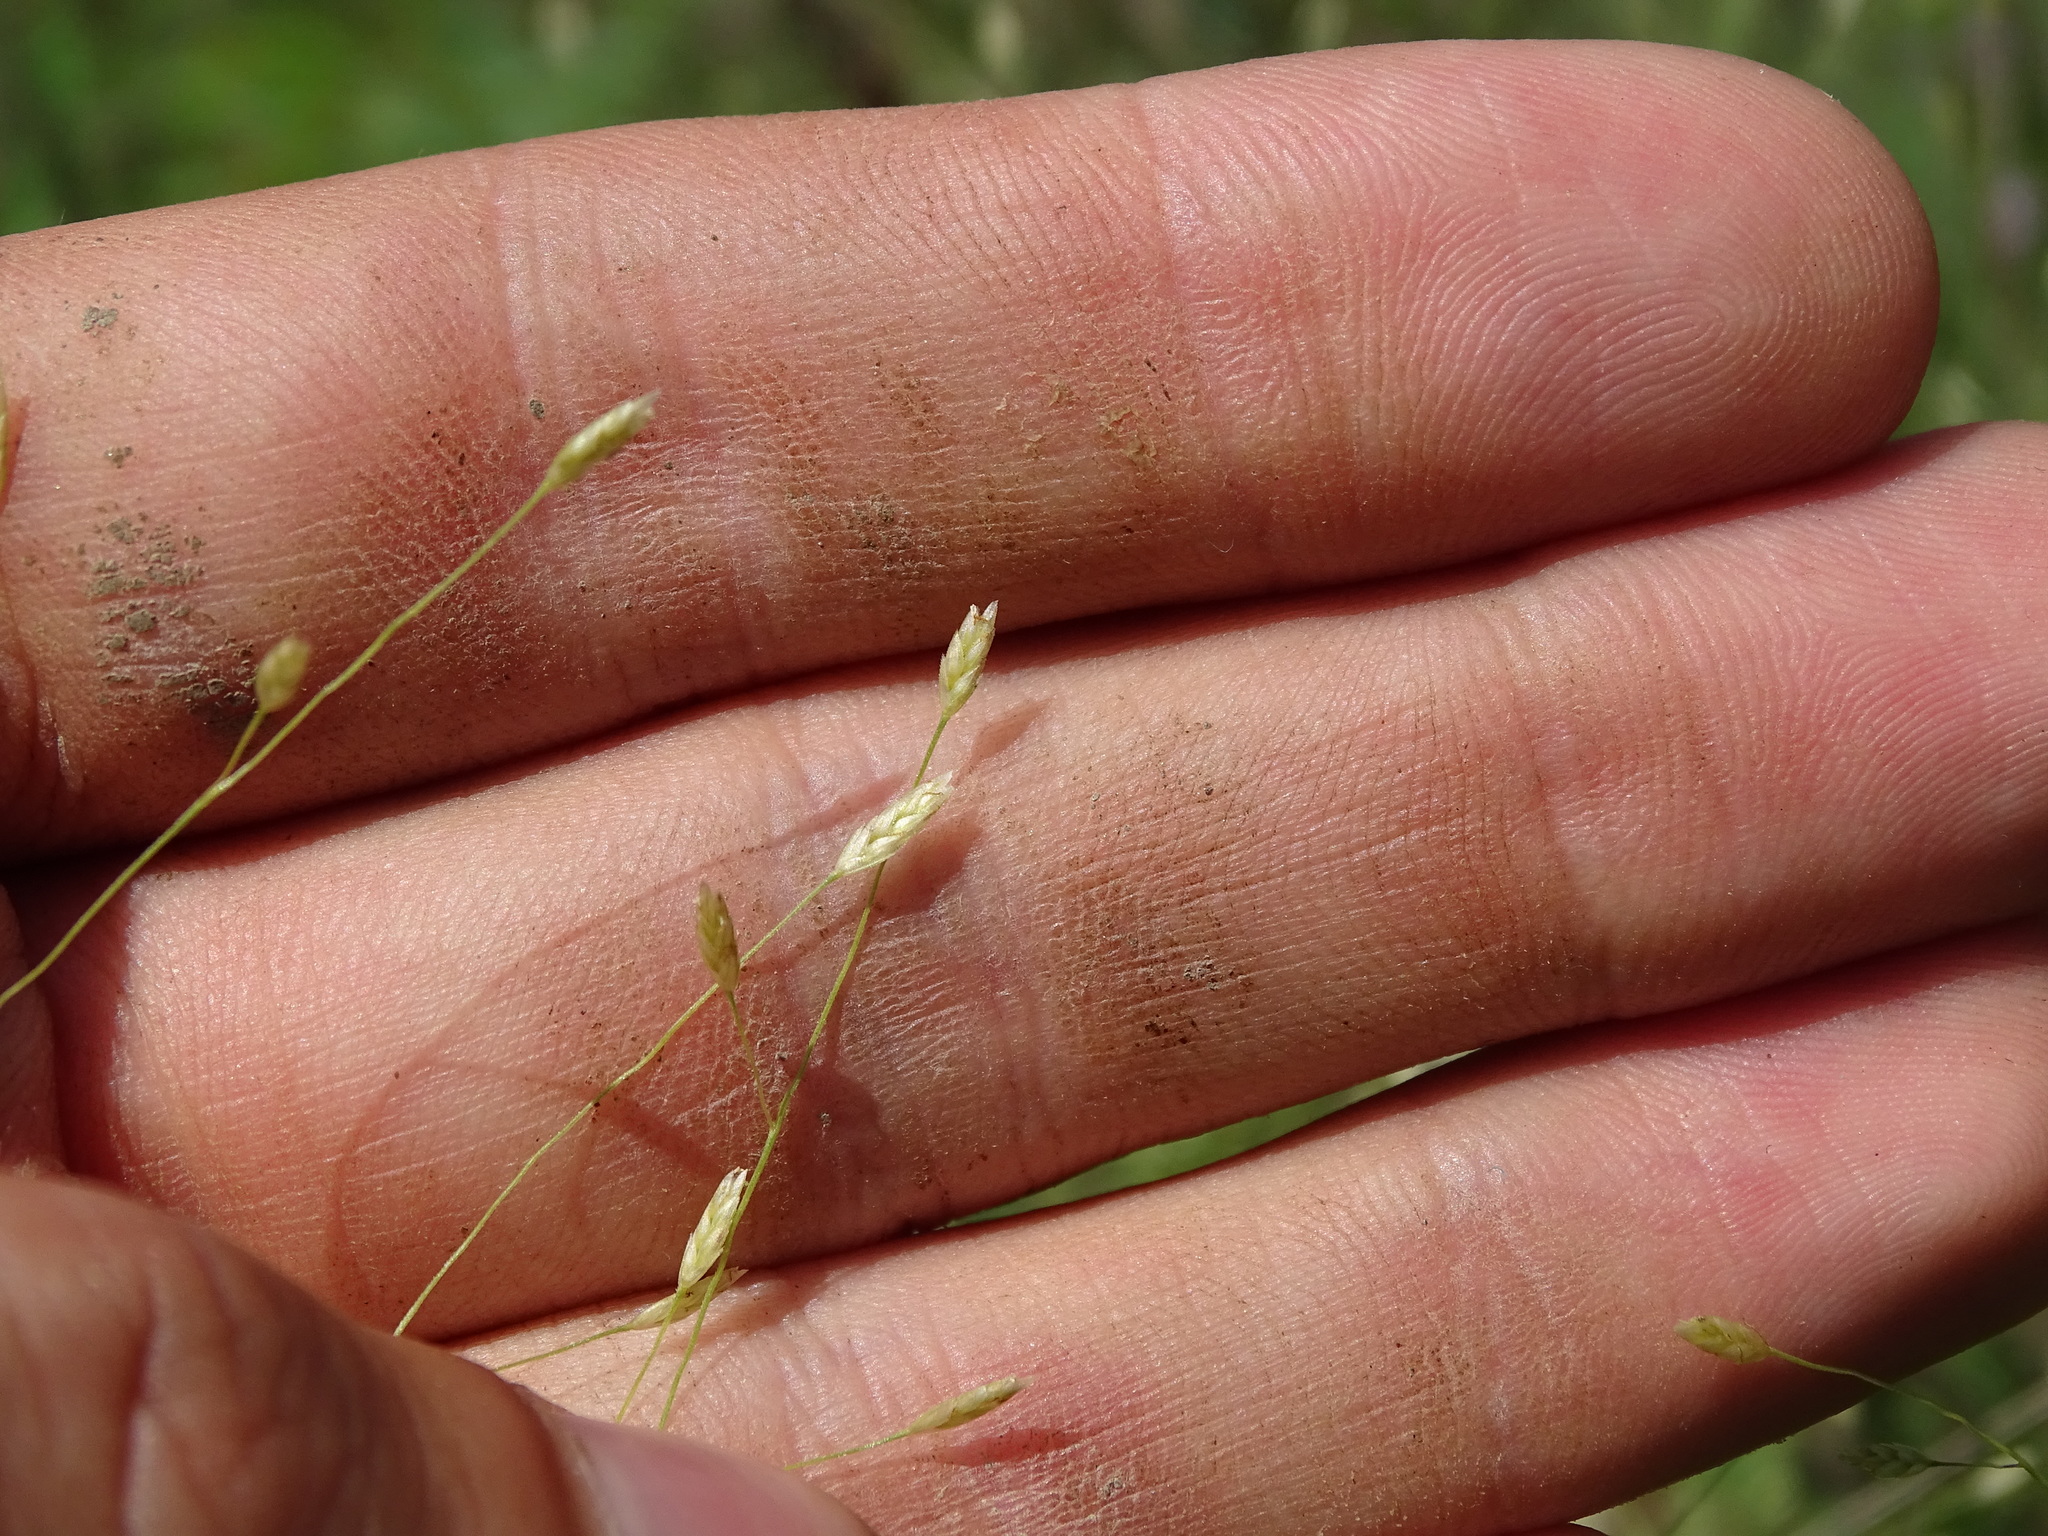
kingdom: Plantae
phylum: Tracheophyta
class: Liliopsida
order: Poales
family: Poaceae
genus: Eragrostis
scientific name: Eragrostis spectabilis
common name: Petticoat-climber
